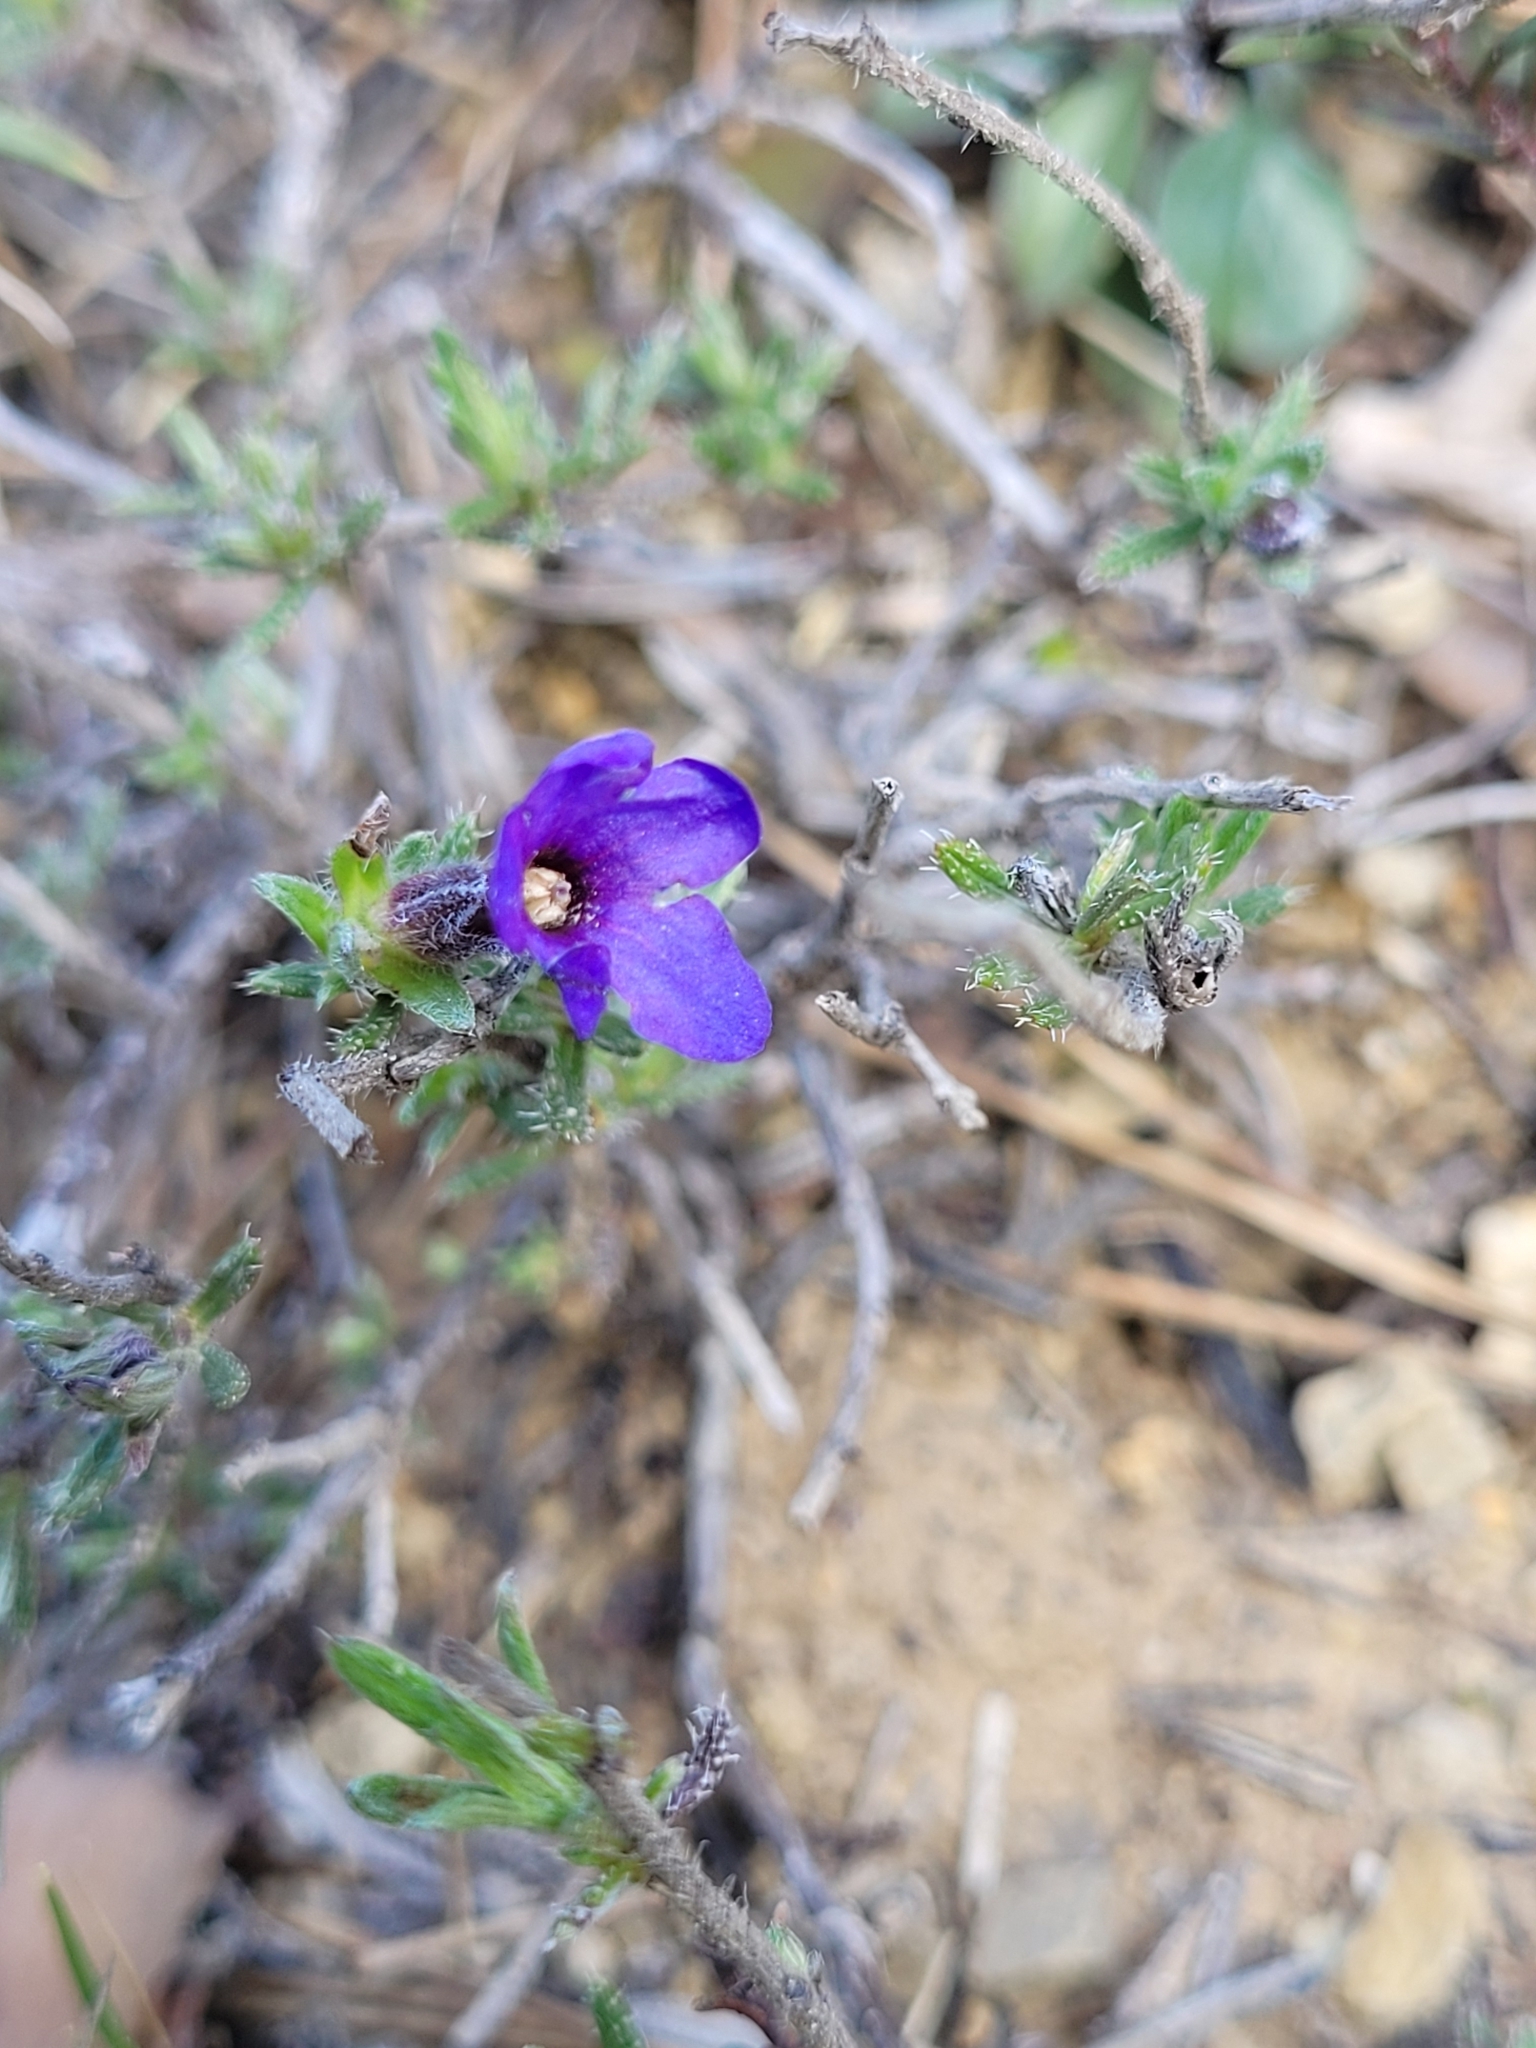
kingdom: Plantae
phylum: Tracheophyta
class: Magnoliopsida
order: Boraginales
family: Boraginaceae
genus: Lithodora
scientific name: Lithodora fruticosa
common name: Shrubby gromwell
